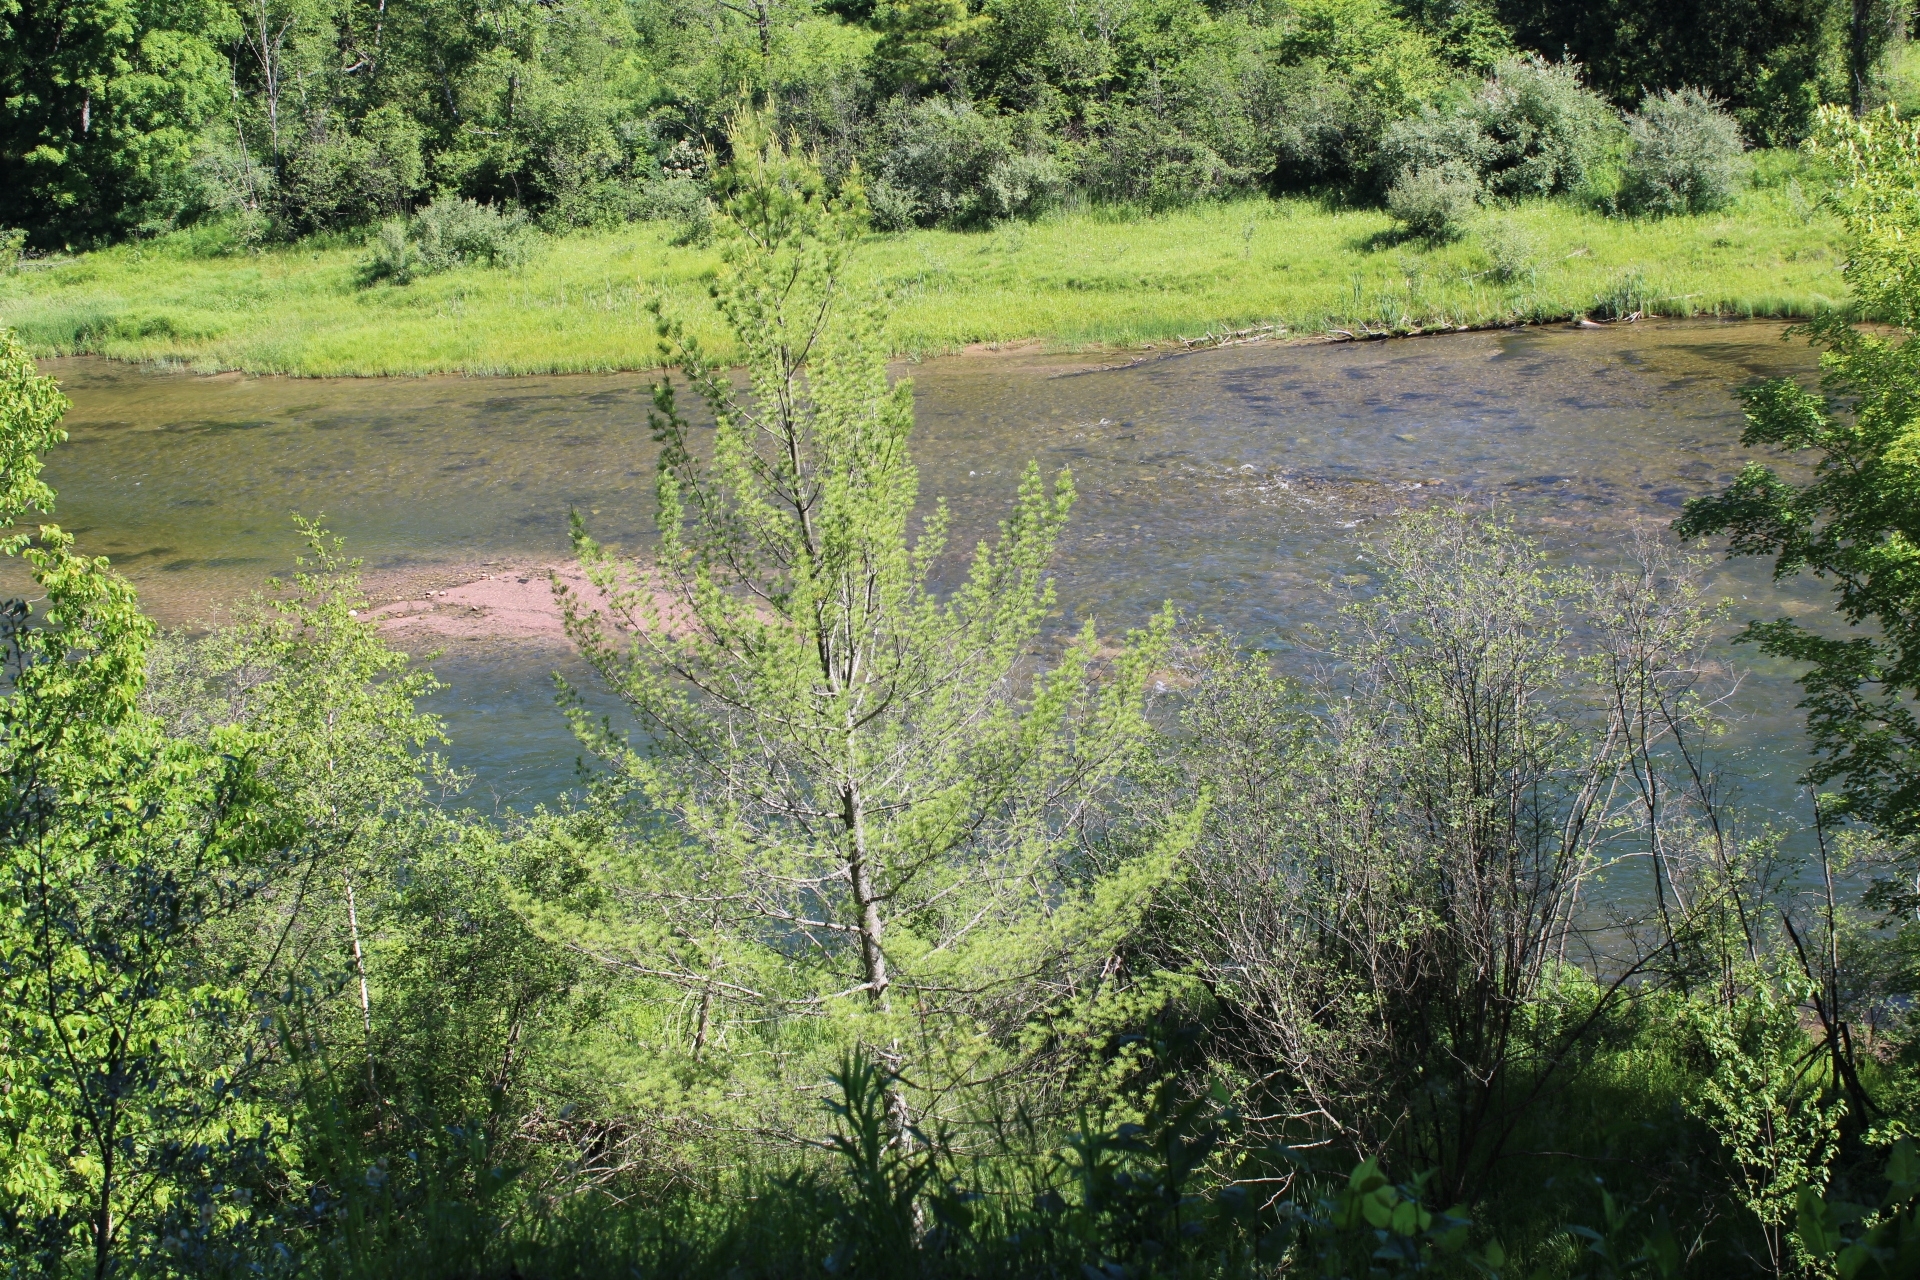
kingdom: Plantae
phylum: Tracheophyta
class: Pinopsida
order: Pinales
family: Pinaceae
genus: Pinus
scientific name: Pinus strobus
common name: Weymouth pine
